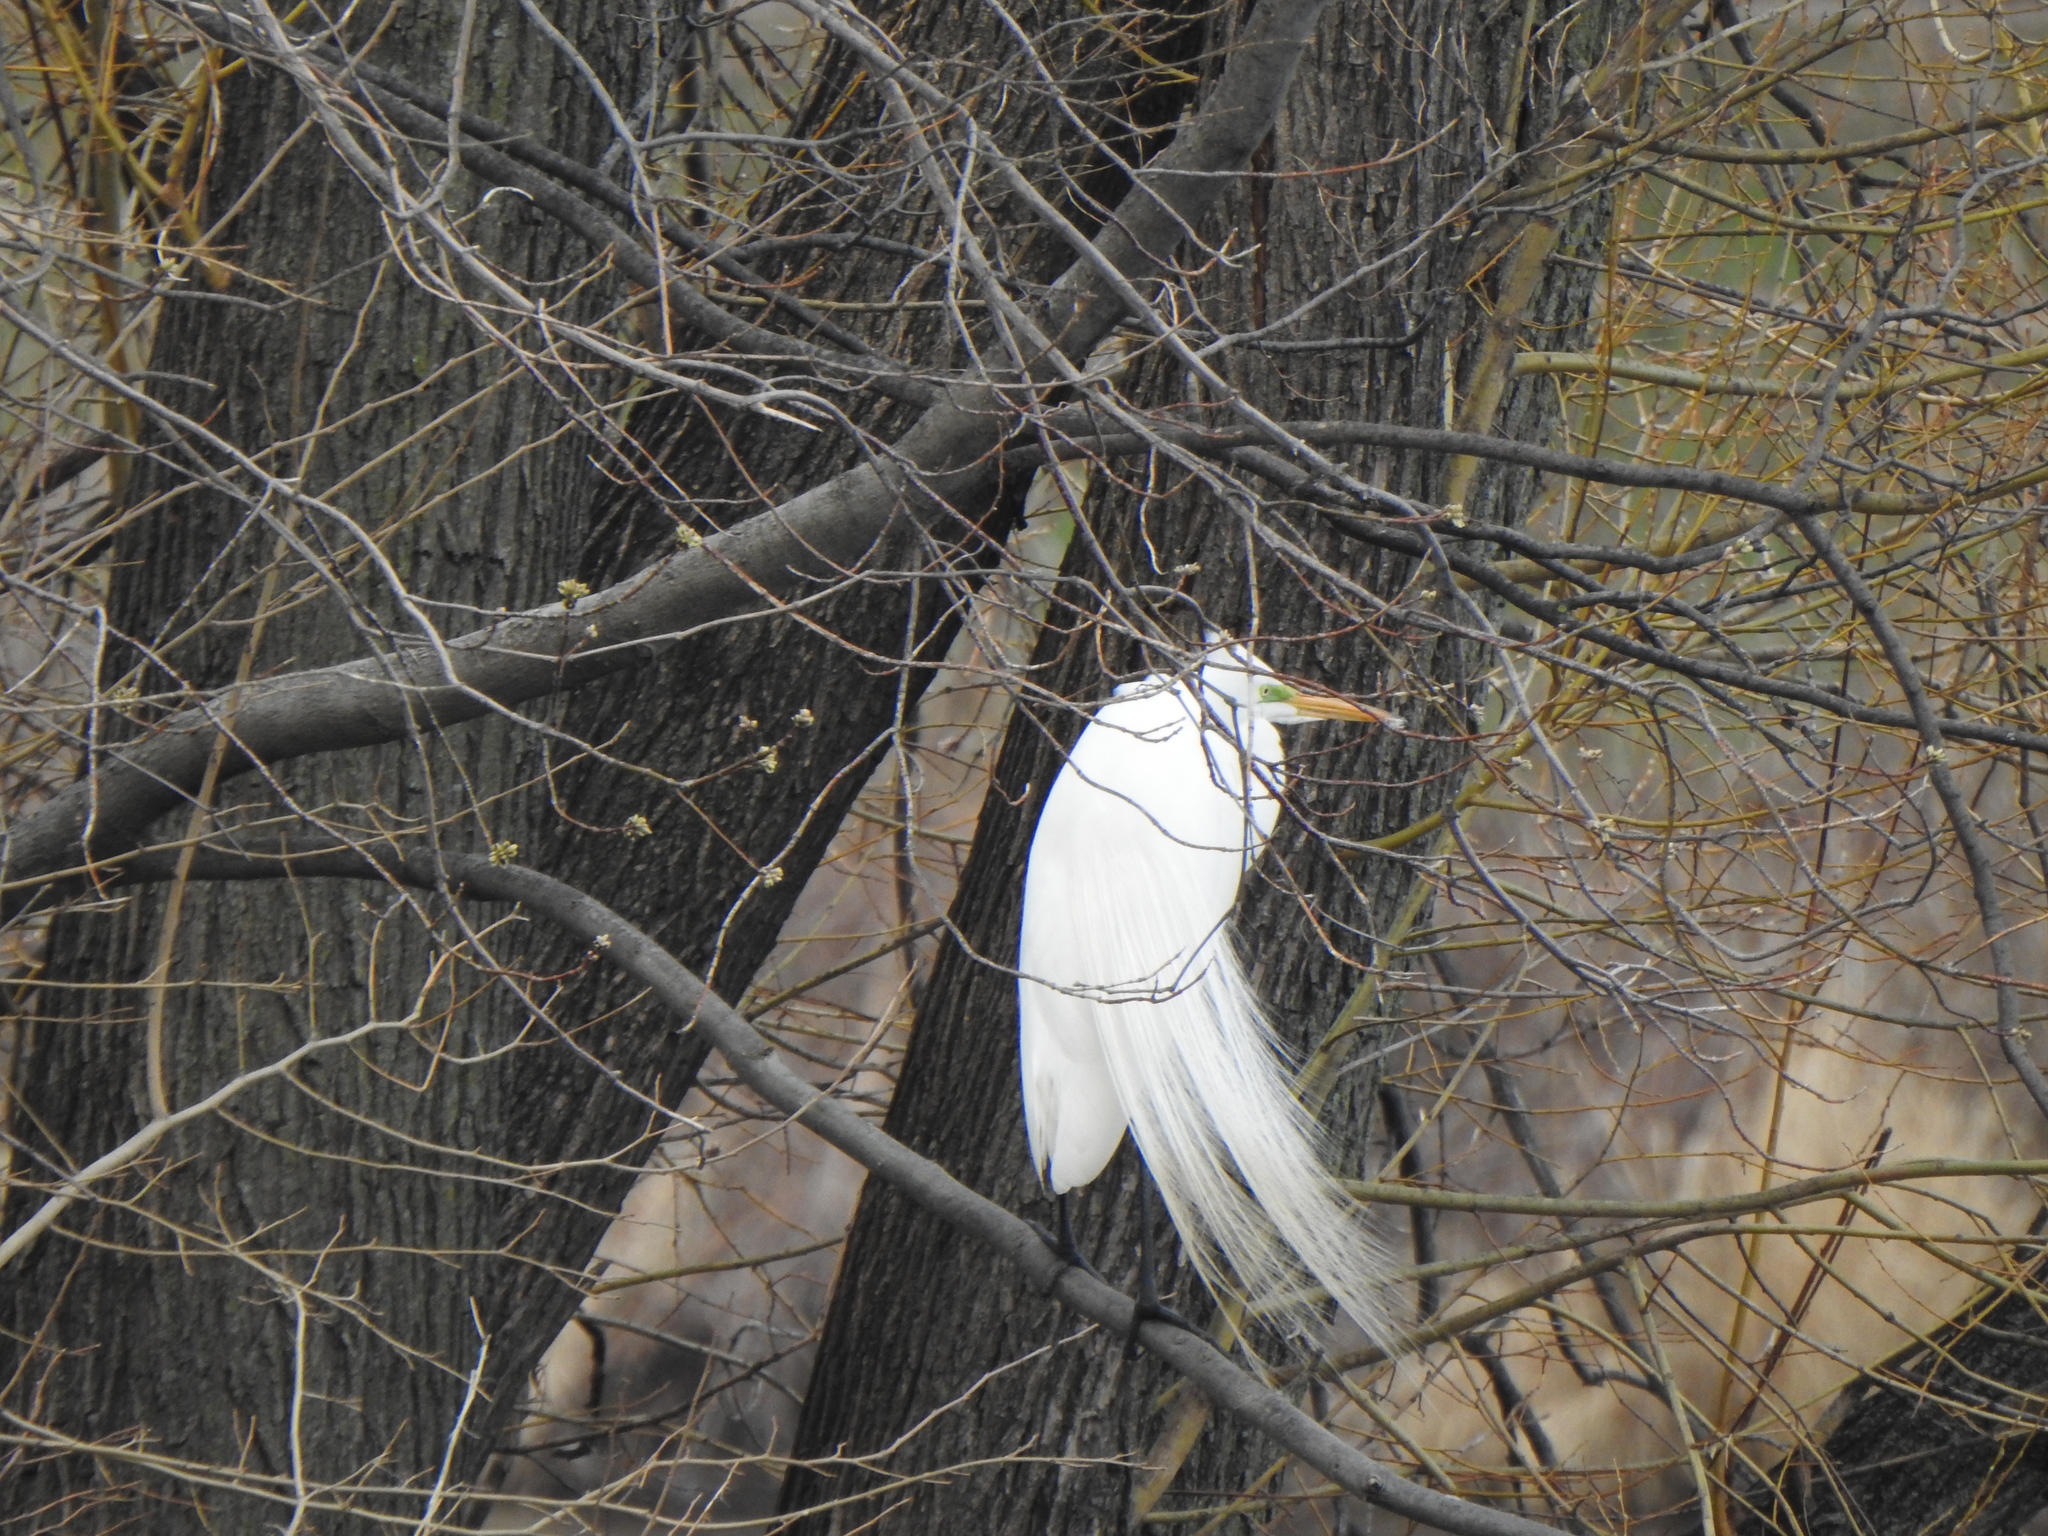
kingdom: Animalia
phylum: Chordata
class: Aves
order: Pelecaniformes
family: Ardeidae
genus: Ardea
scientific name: Ardea alba
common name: Great egret
